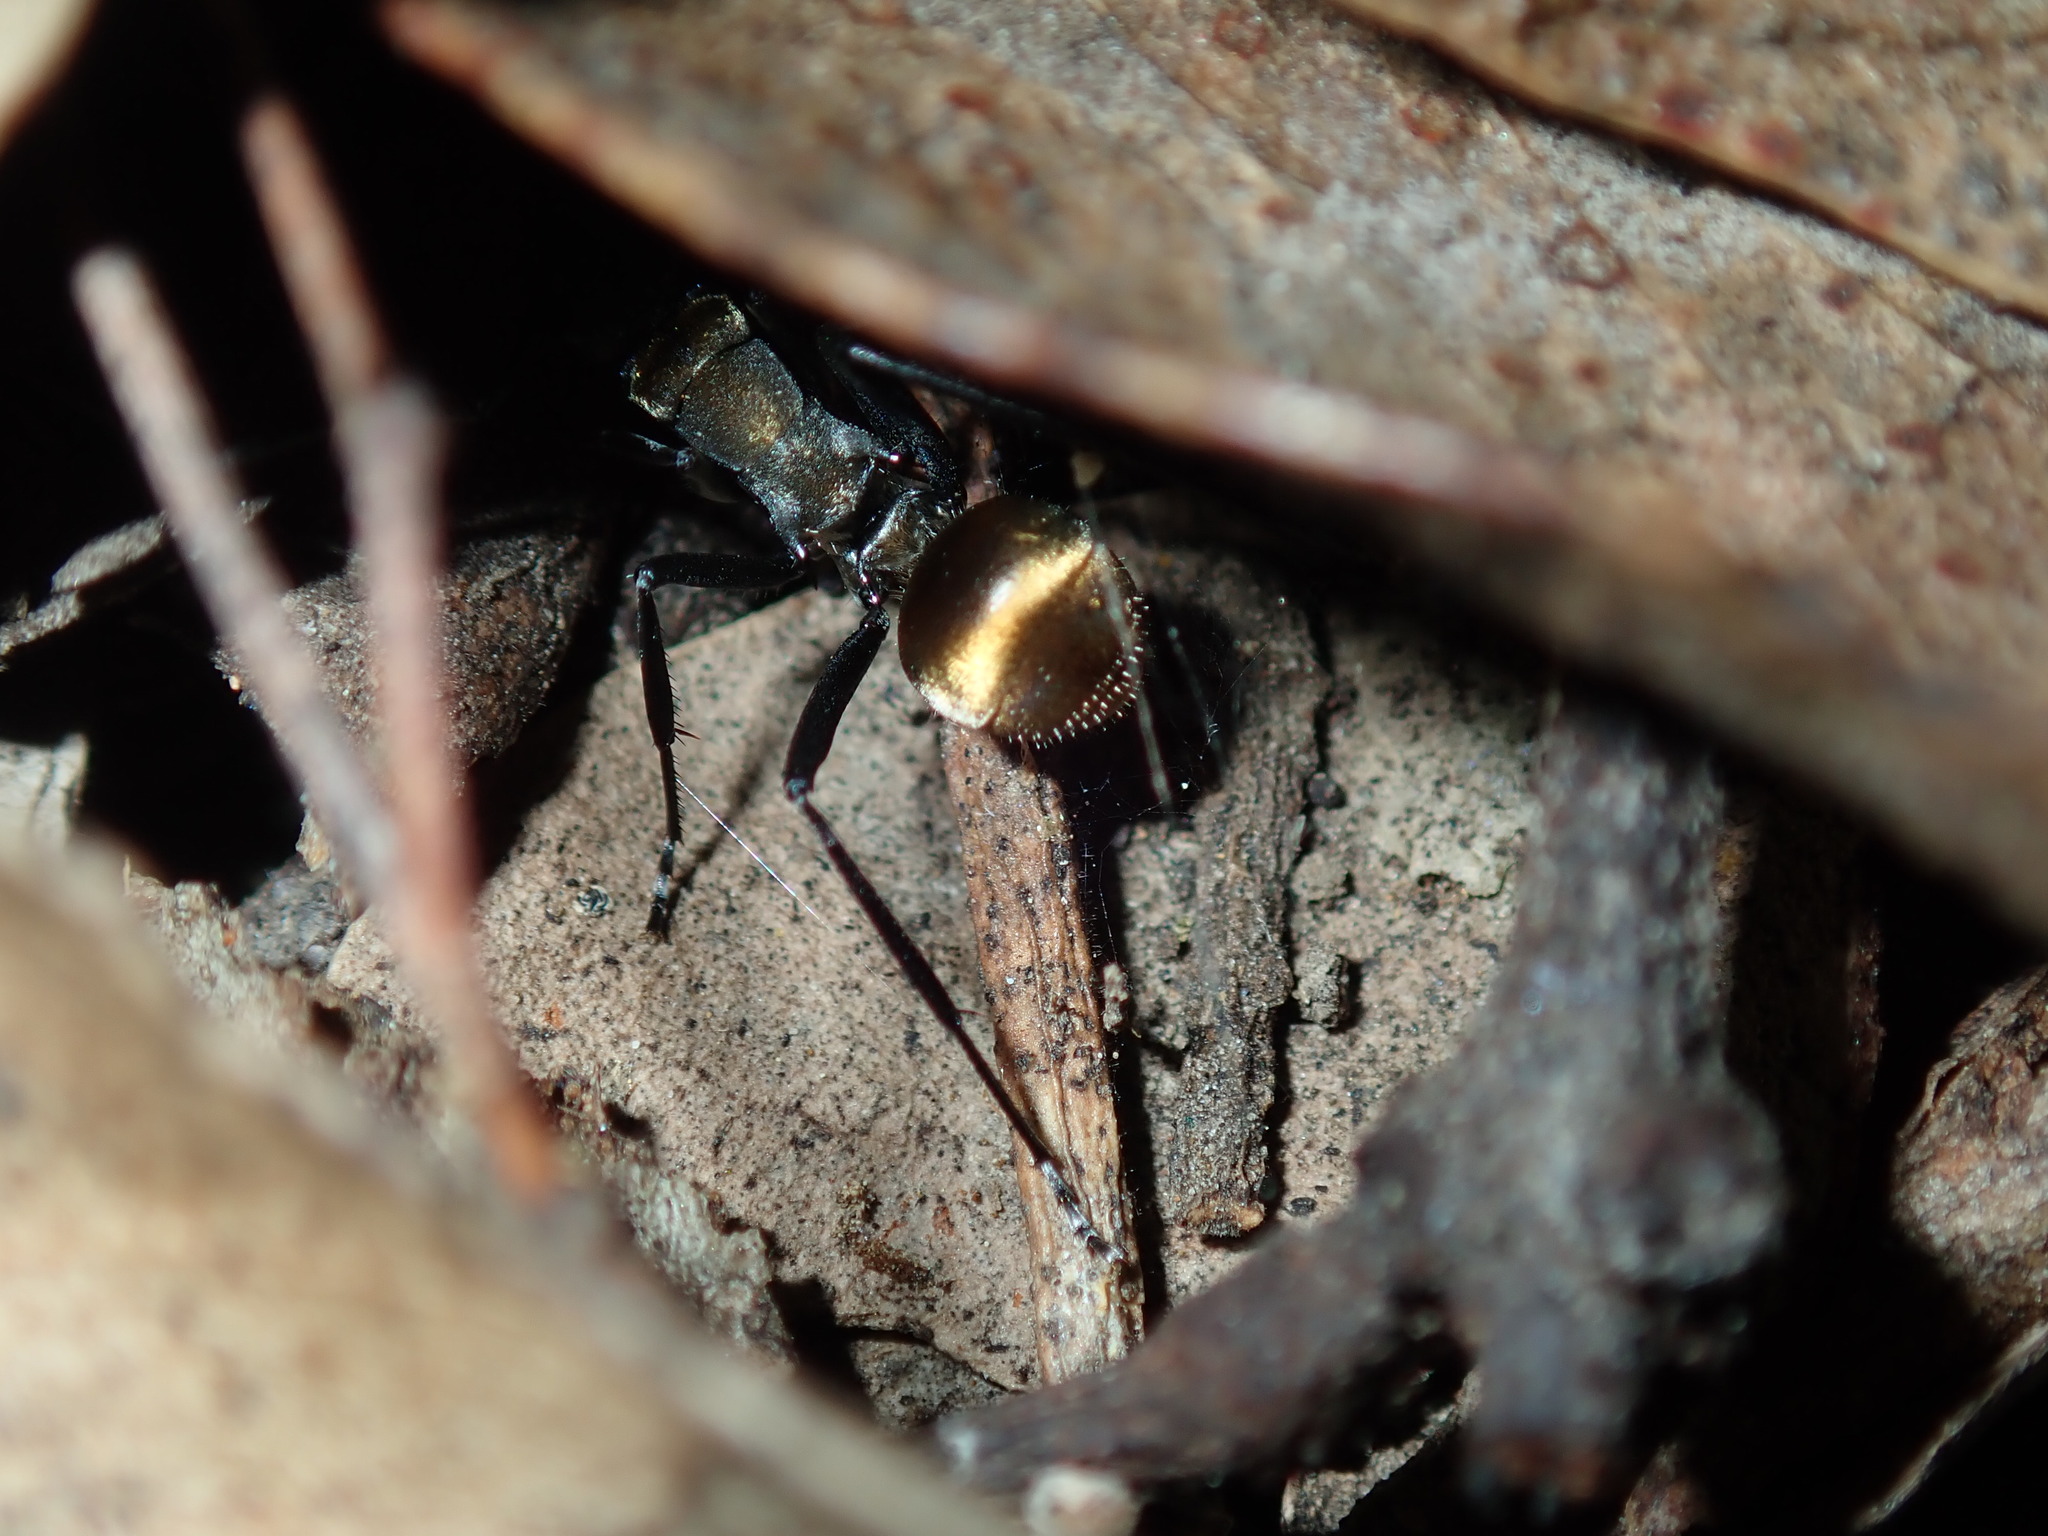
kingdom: Animalia
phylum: Arthropoda
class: Insecta
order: Hymenoptera
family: Formicidae
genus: Polyrhachis
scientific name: Polyrhachis ammon
